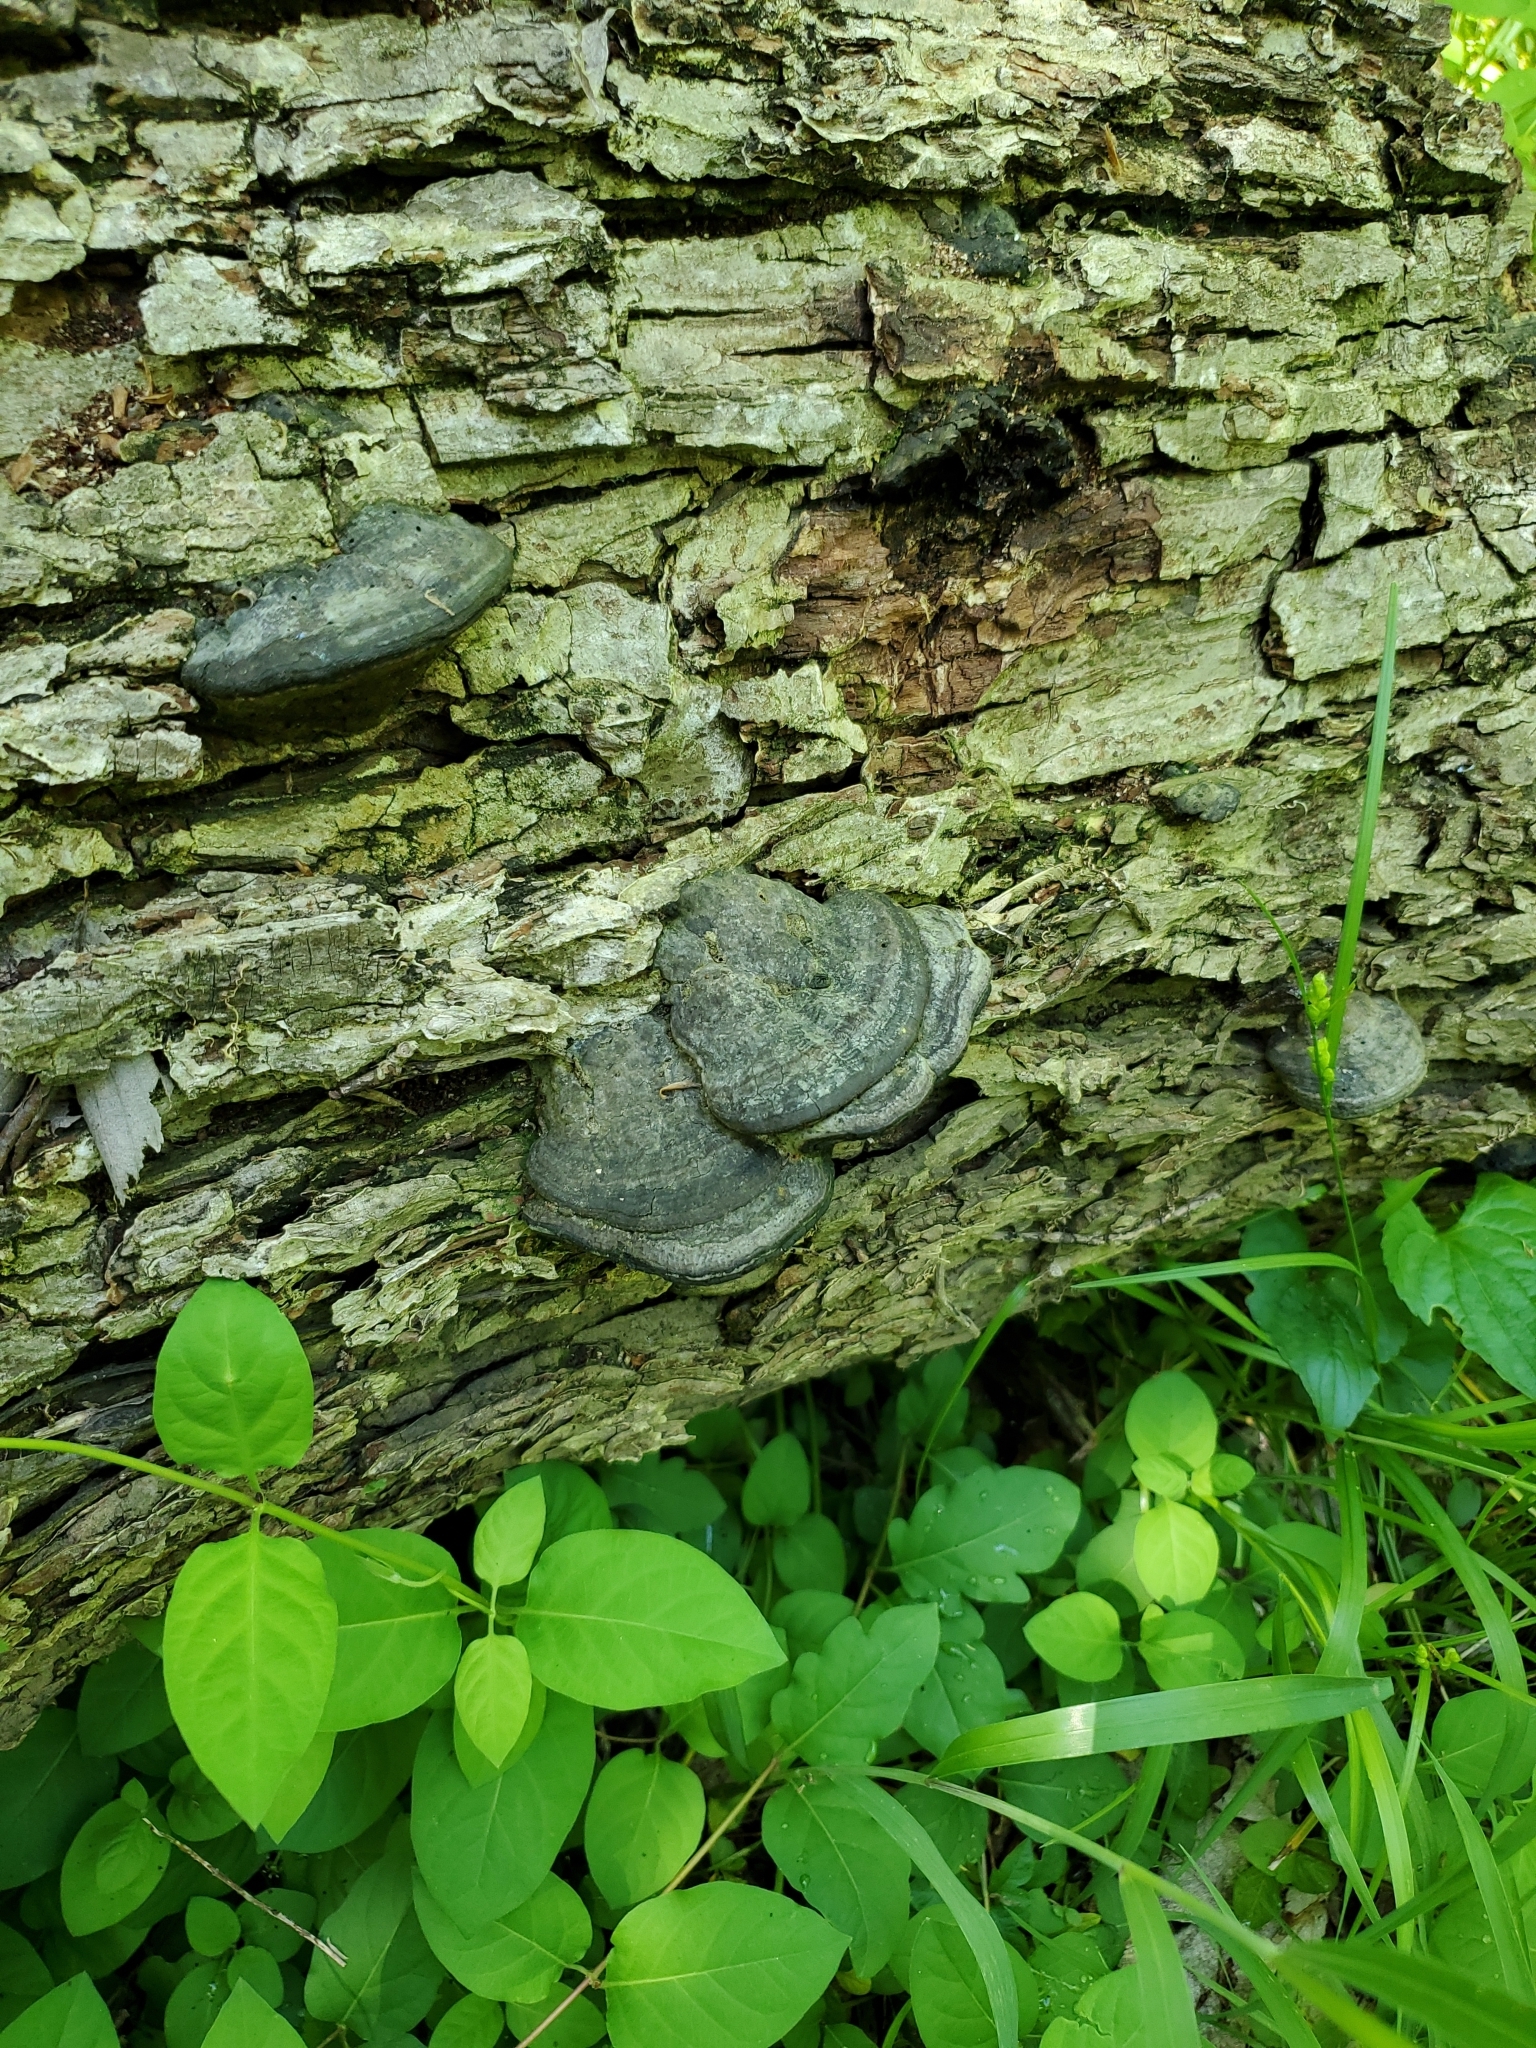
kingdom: Fungi
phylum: Basidiomycota
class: Agaricomycetes
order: Polyporales
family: Polyporaceae
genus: Fomes
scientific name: Fomes fasciatus
